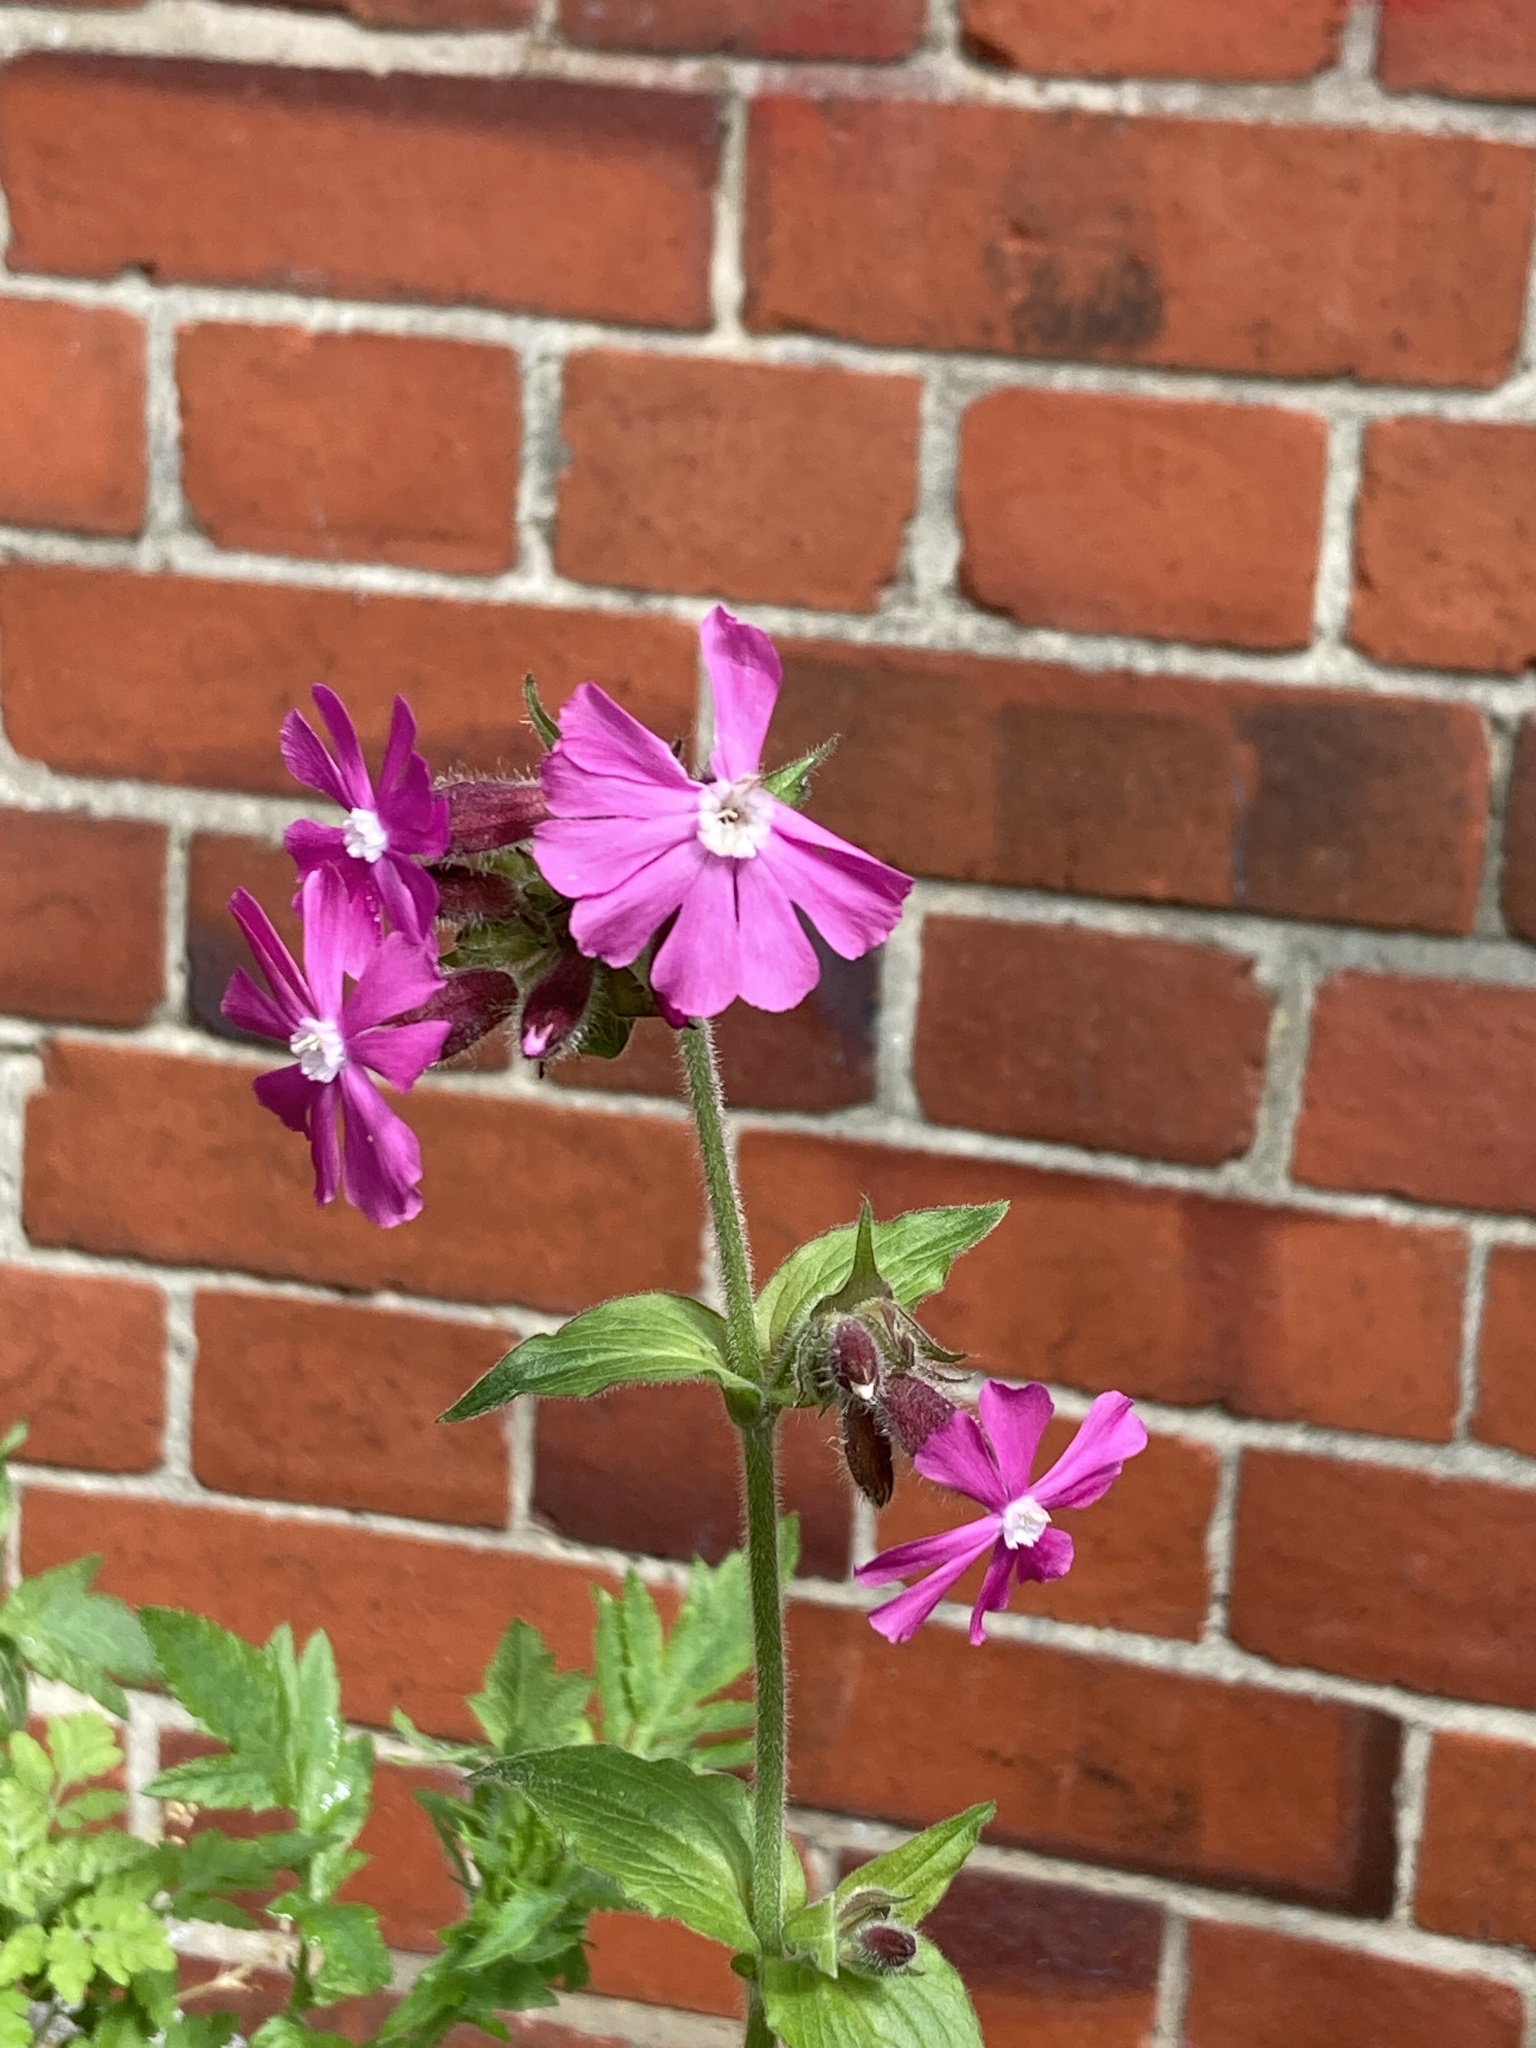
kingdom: Plantae
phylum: Tracheophyta
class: Magnoliopsida
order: Caryophyllales
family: Caryophyllaceae
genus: Silene
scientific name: Silene dioica
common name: Red campion
